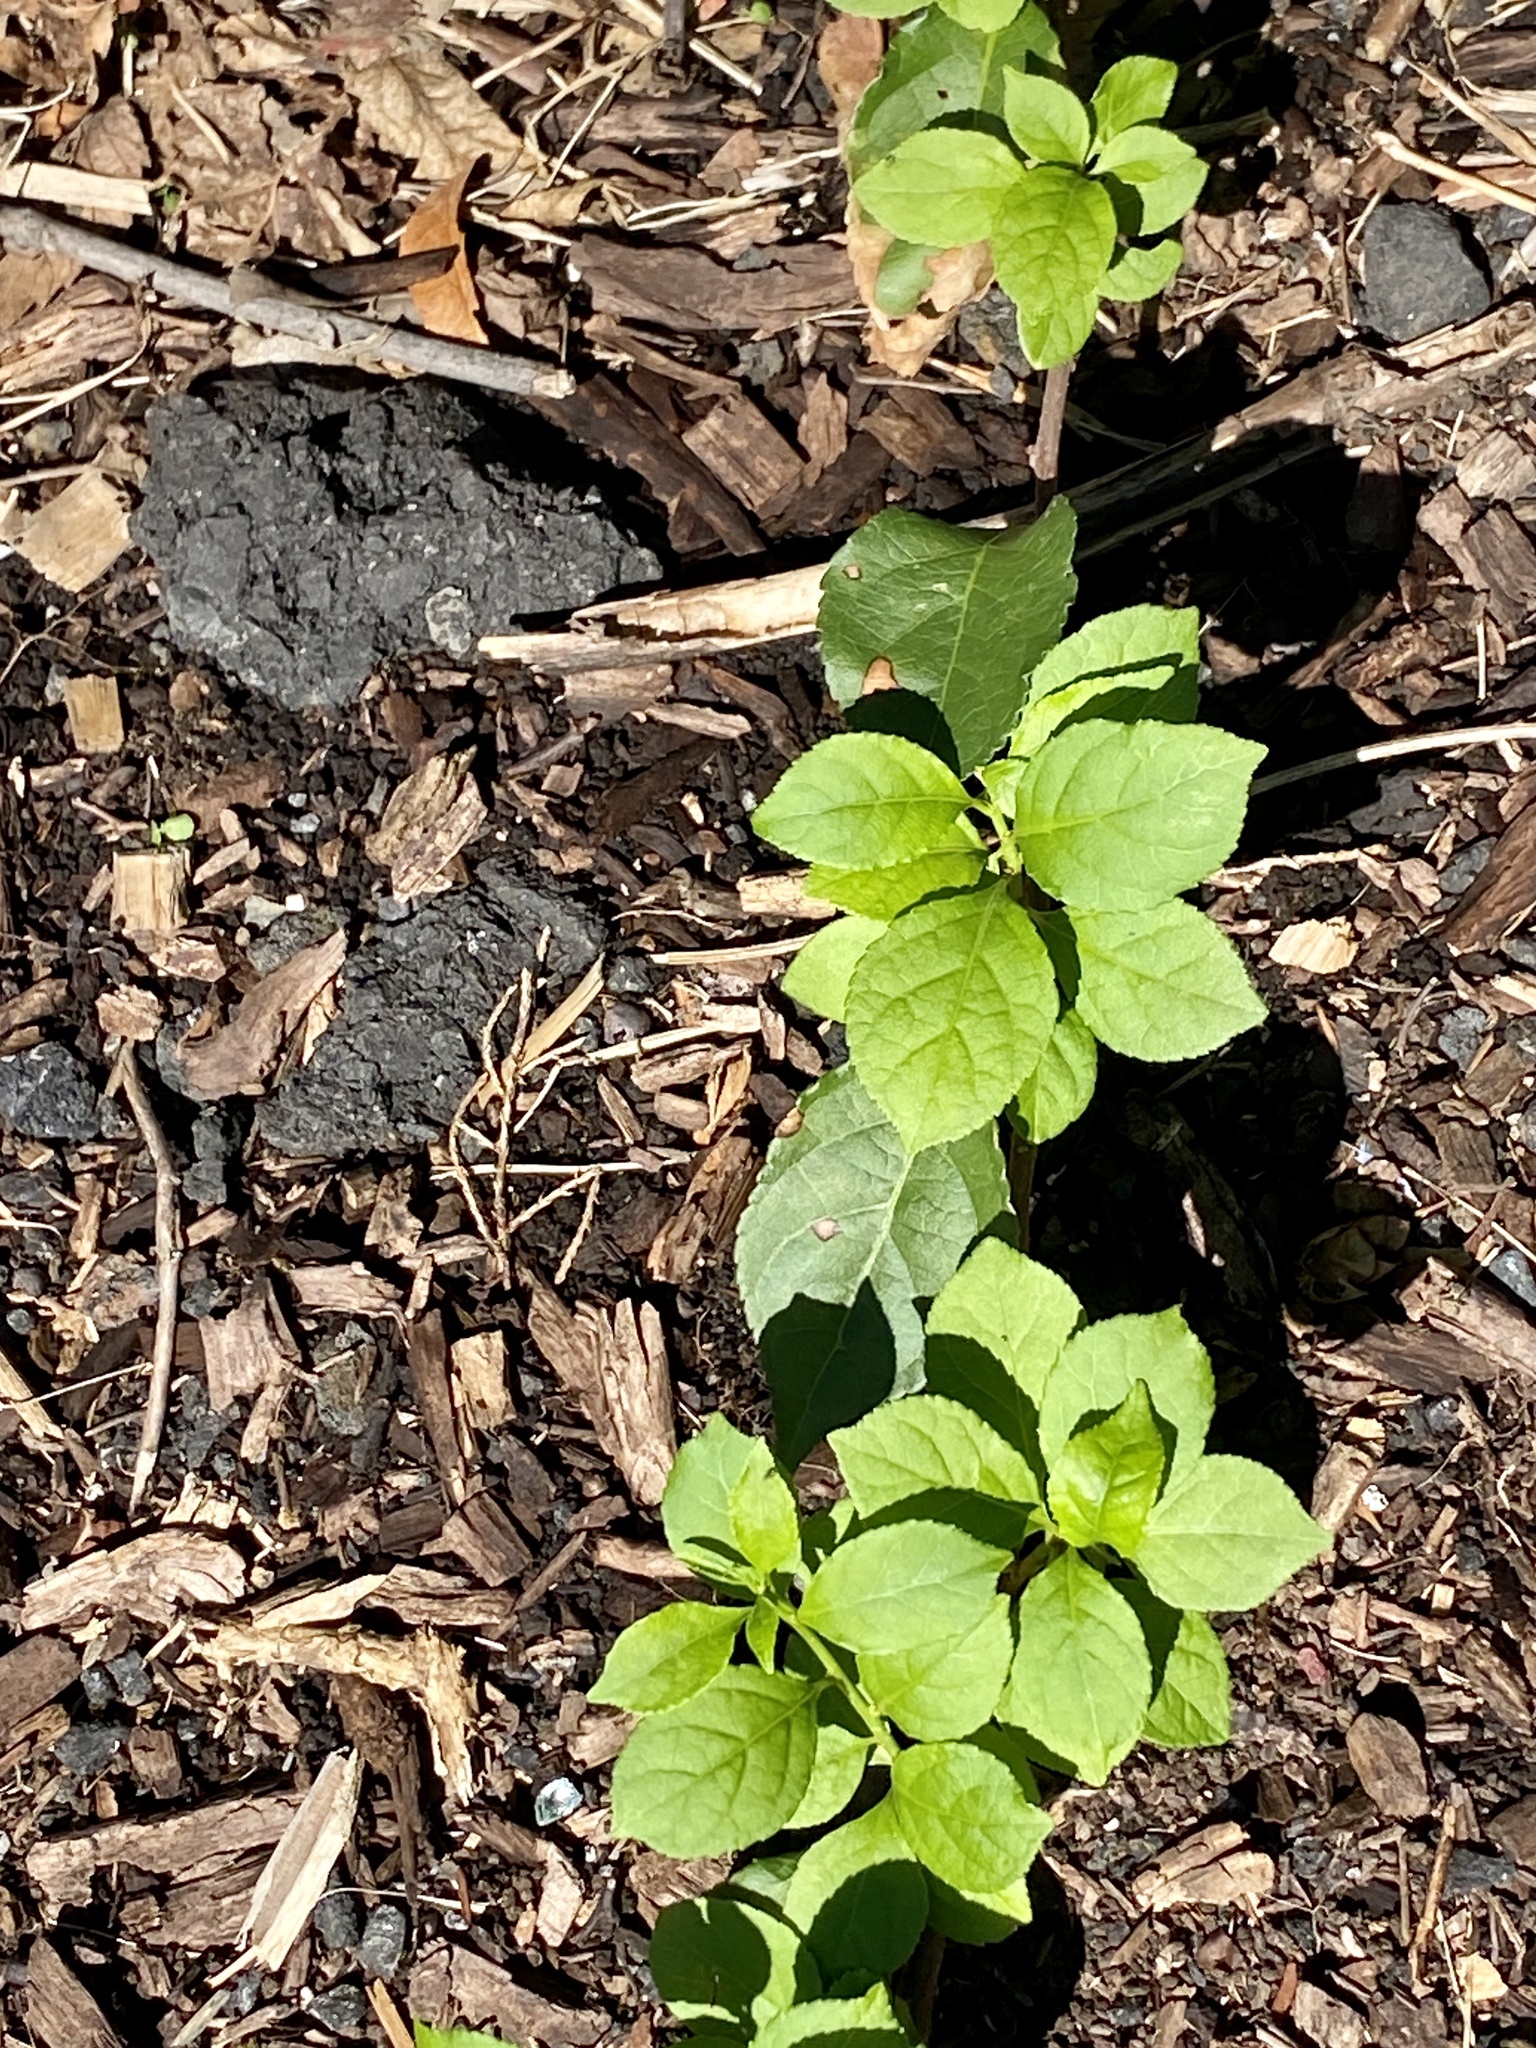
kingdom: Plantae
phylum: Tracheophyta
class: Magnoliopsida
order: Celastrales
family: Celastraceae
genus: Celastrus
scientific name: Celastrus orbiculatus
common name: Oriental bittersweet
